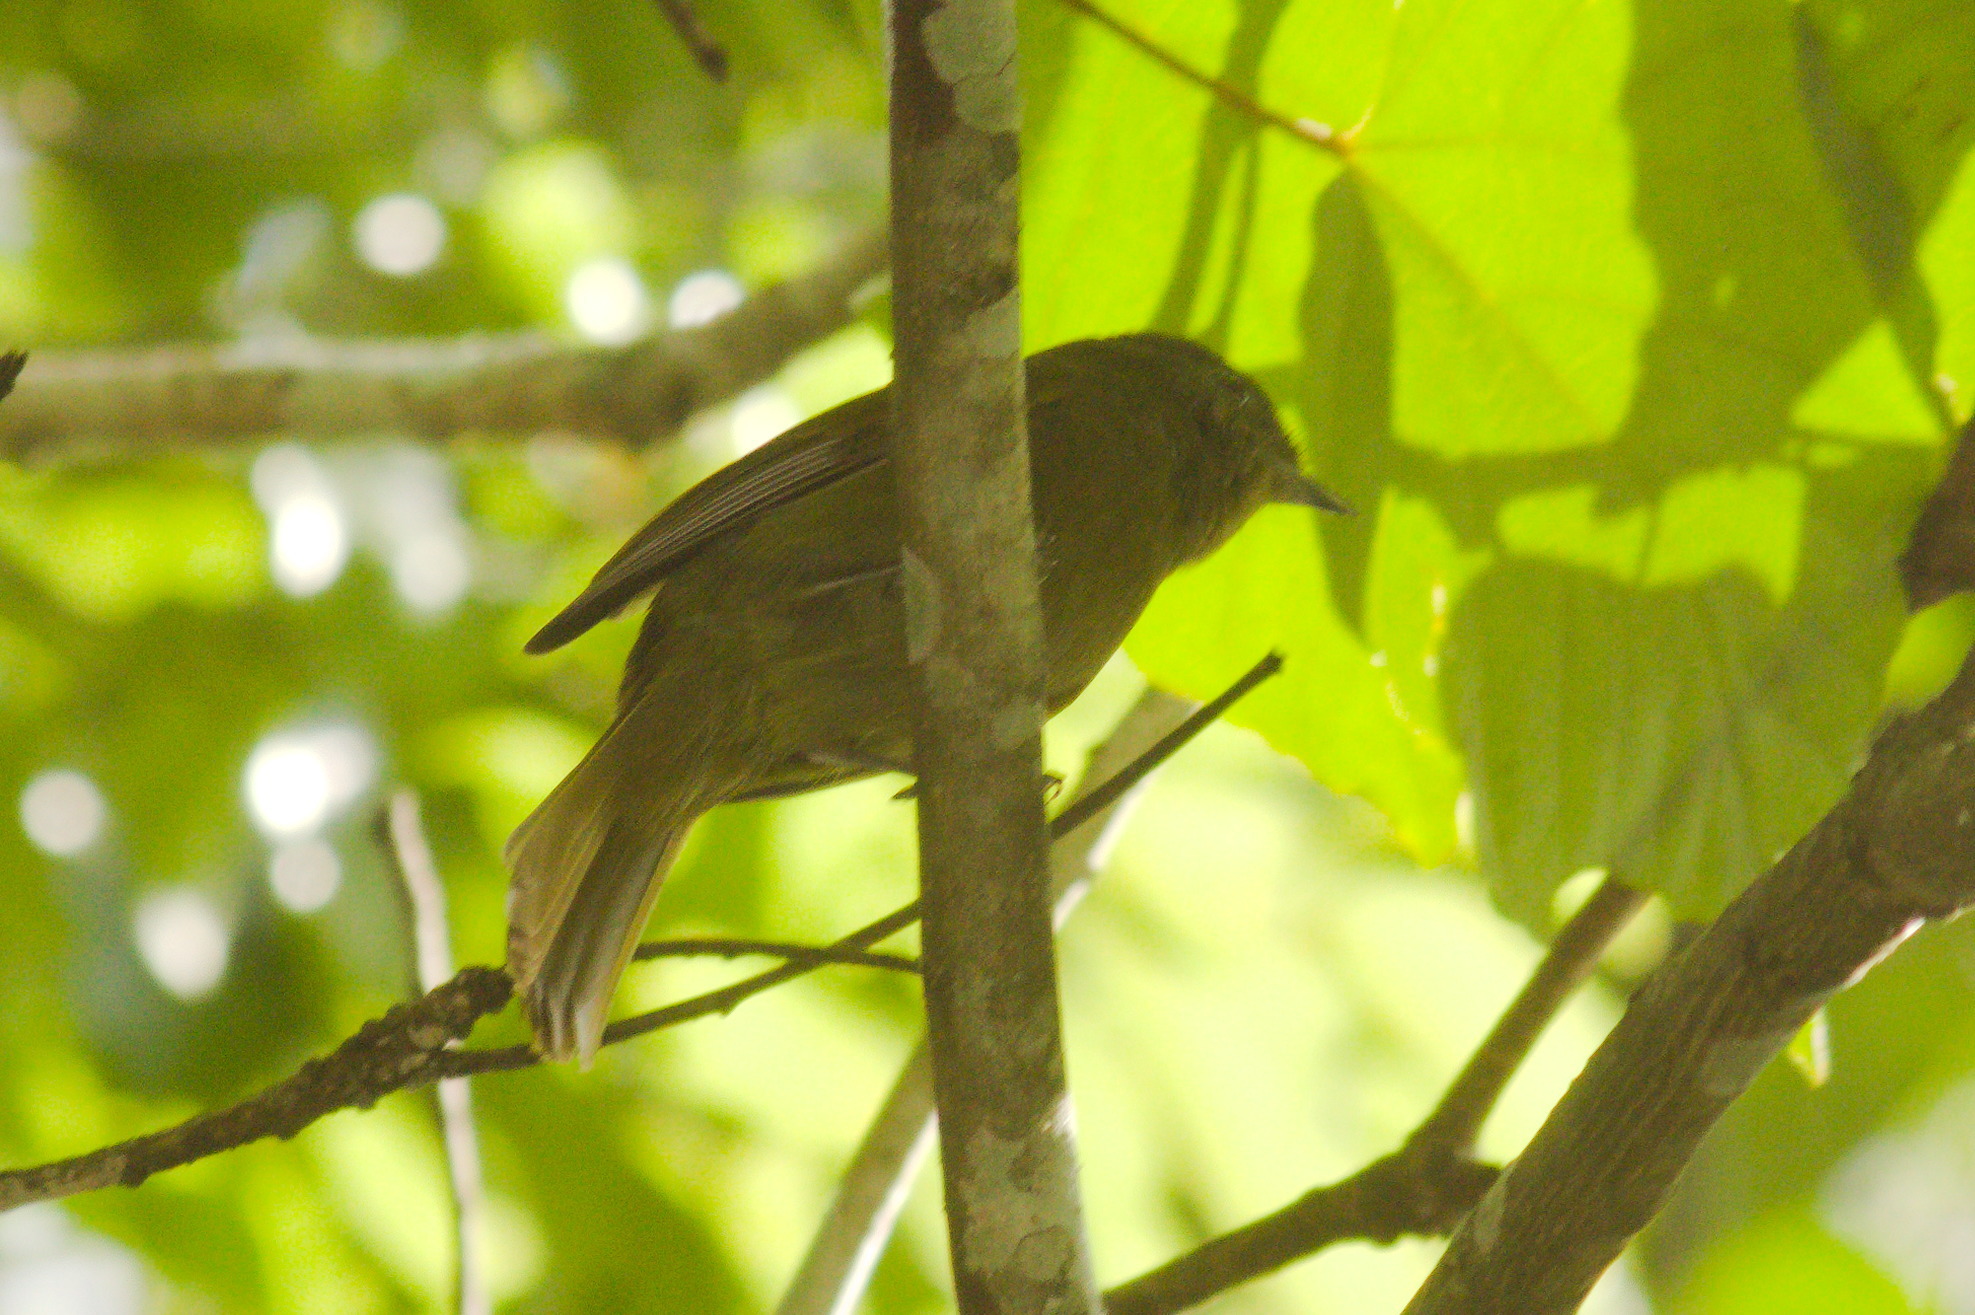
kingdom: Animalia
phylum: Chordata
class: Aves
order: Passeriformes
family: Cotingidae
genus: Schiffornis
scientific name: Schiffornis virescens
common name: Greenish schiffornis
